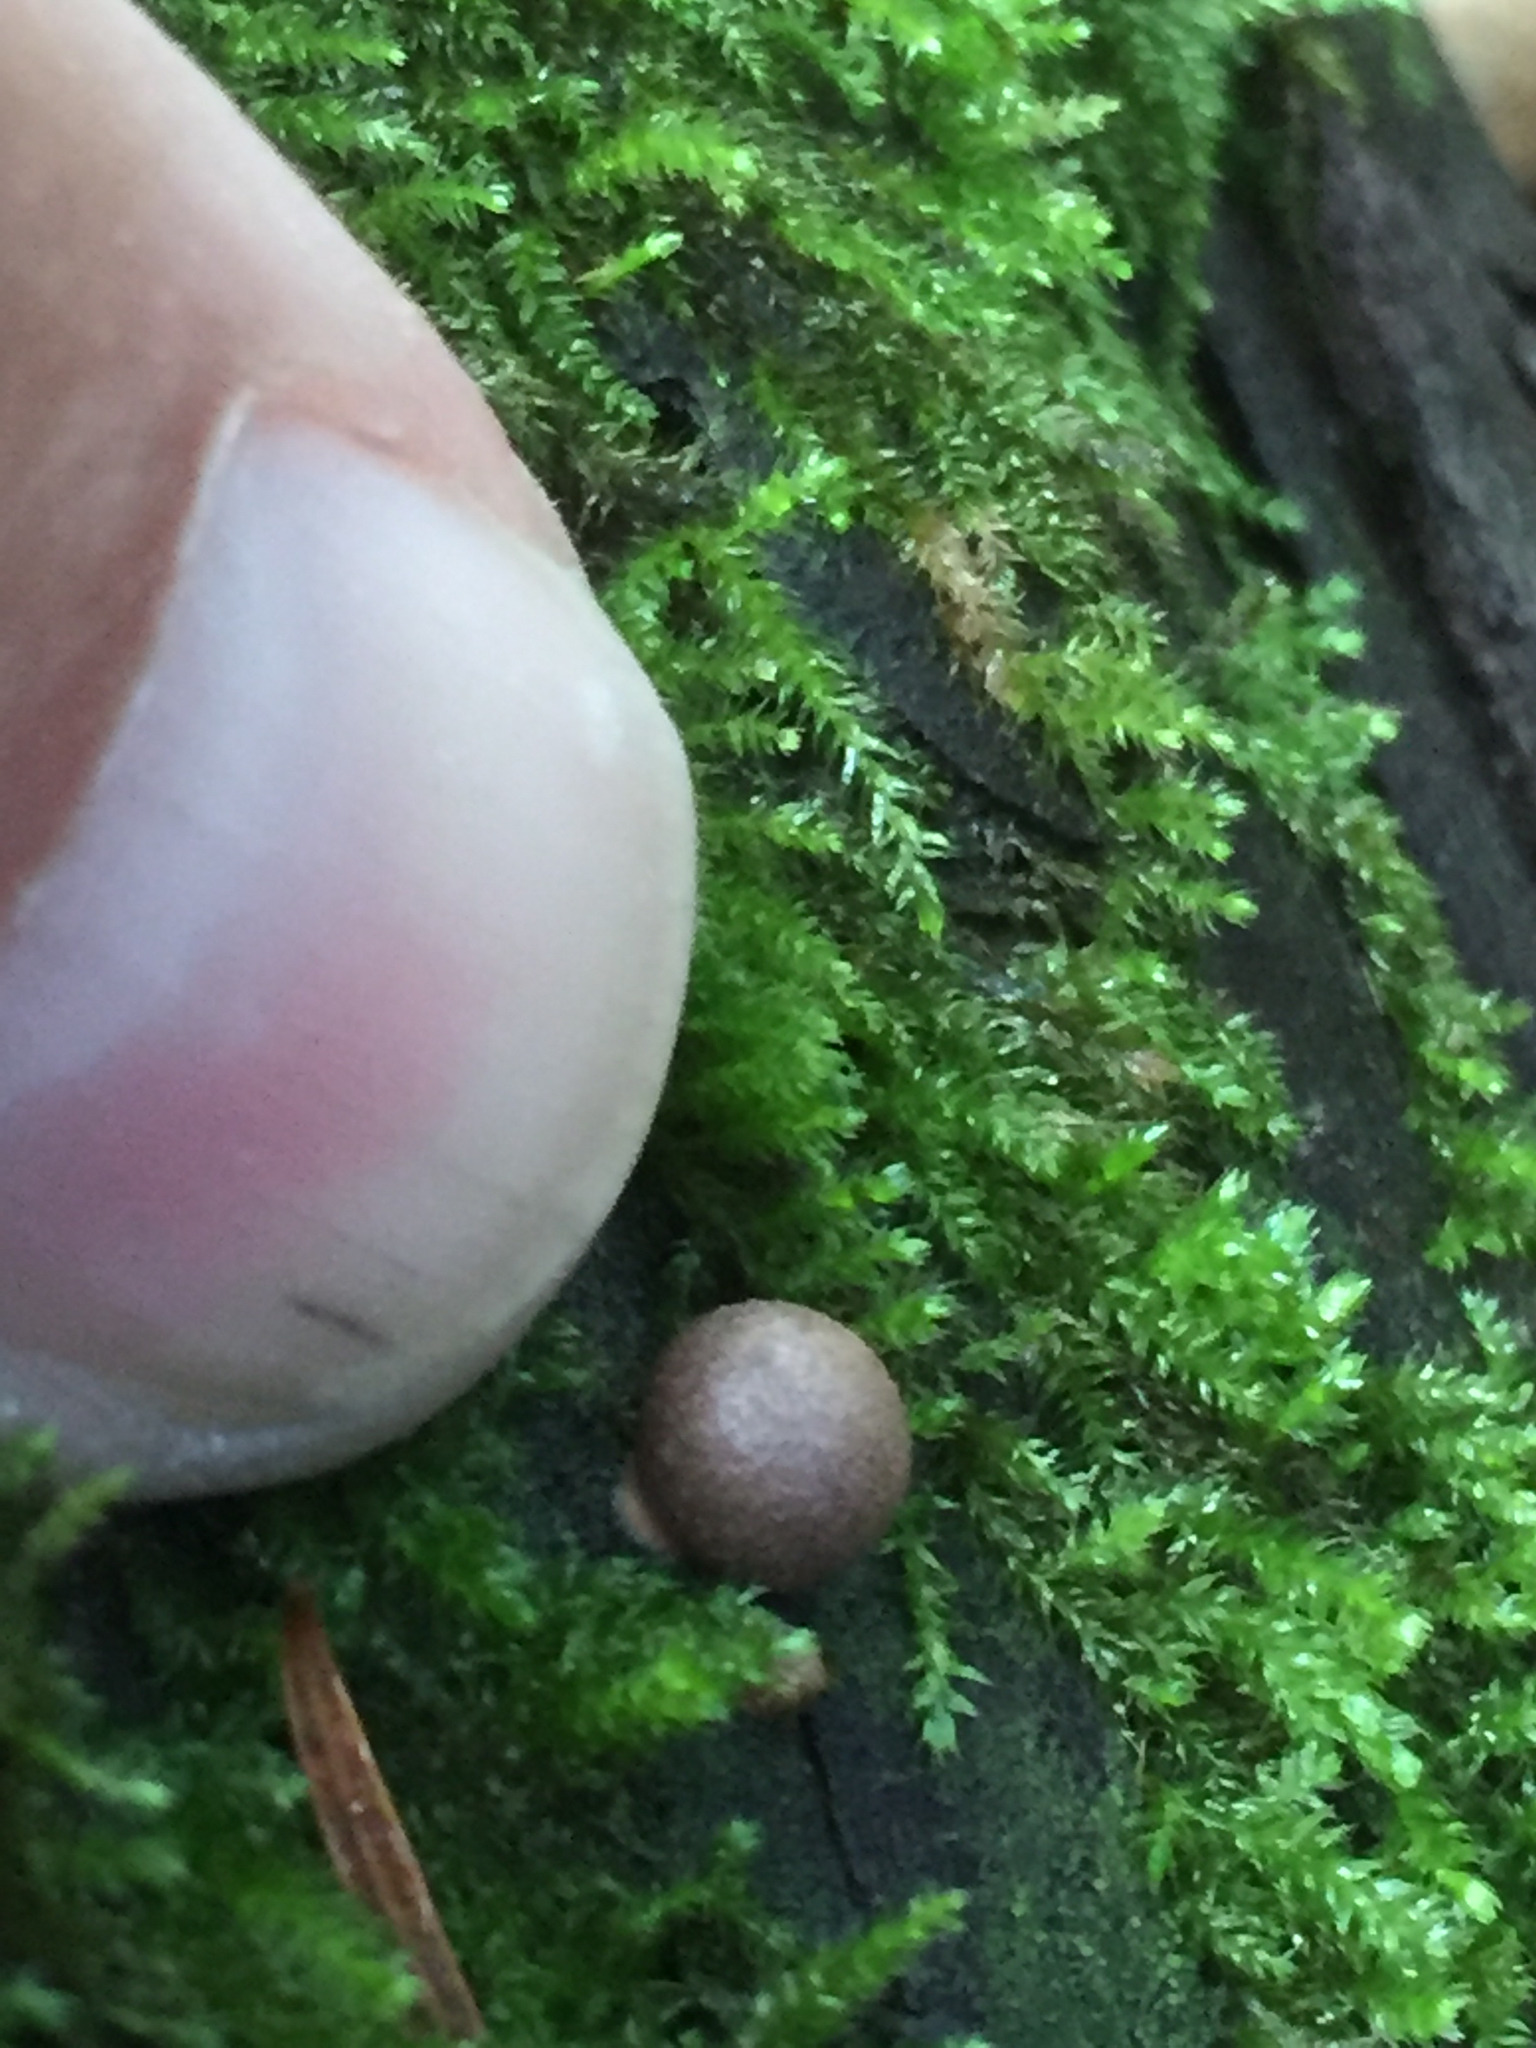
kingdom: Protozoa
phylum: Mycetozoa
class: Myxomycetes
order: Cribrariales
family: Tubiferaceae
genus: Lycogala
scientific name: Lycogala epidendrum
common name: Wolf's milk
